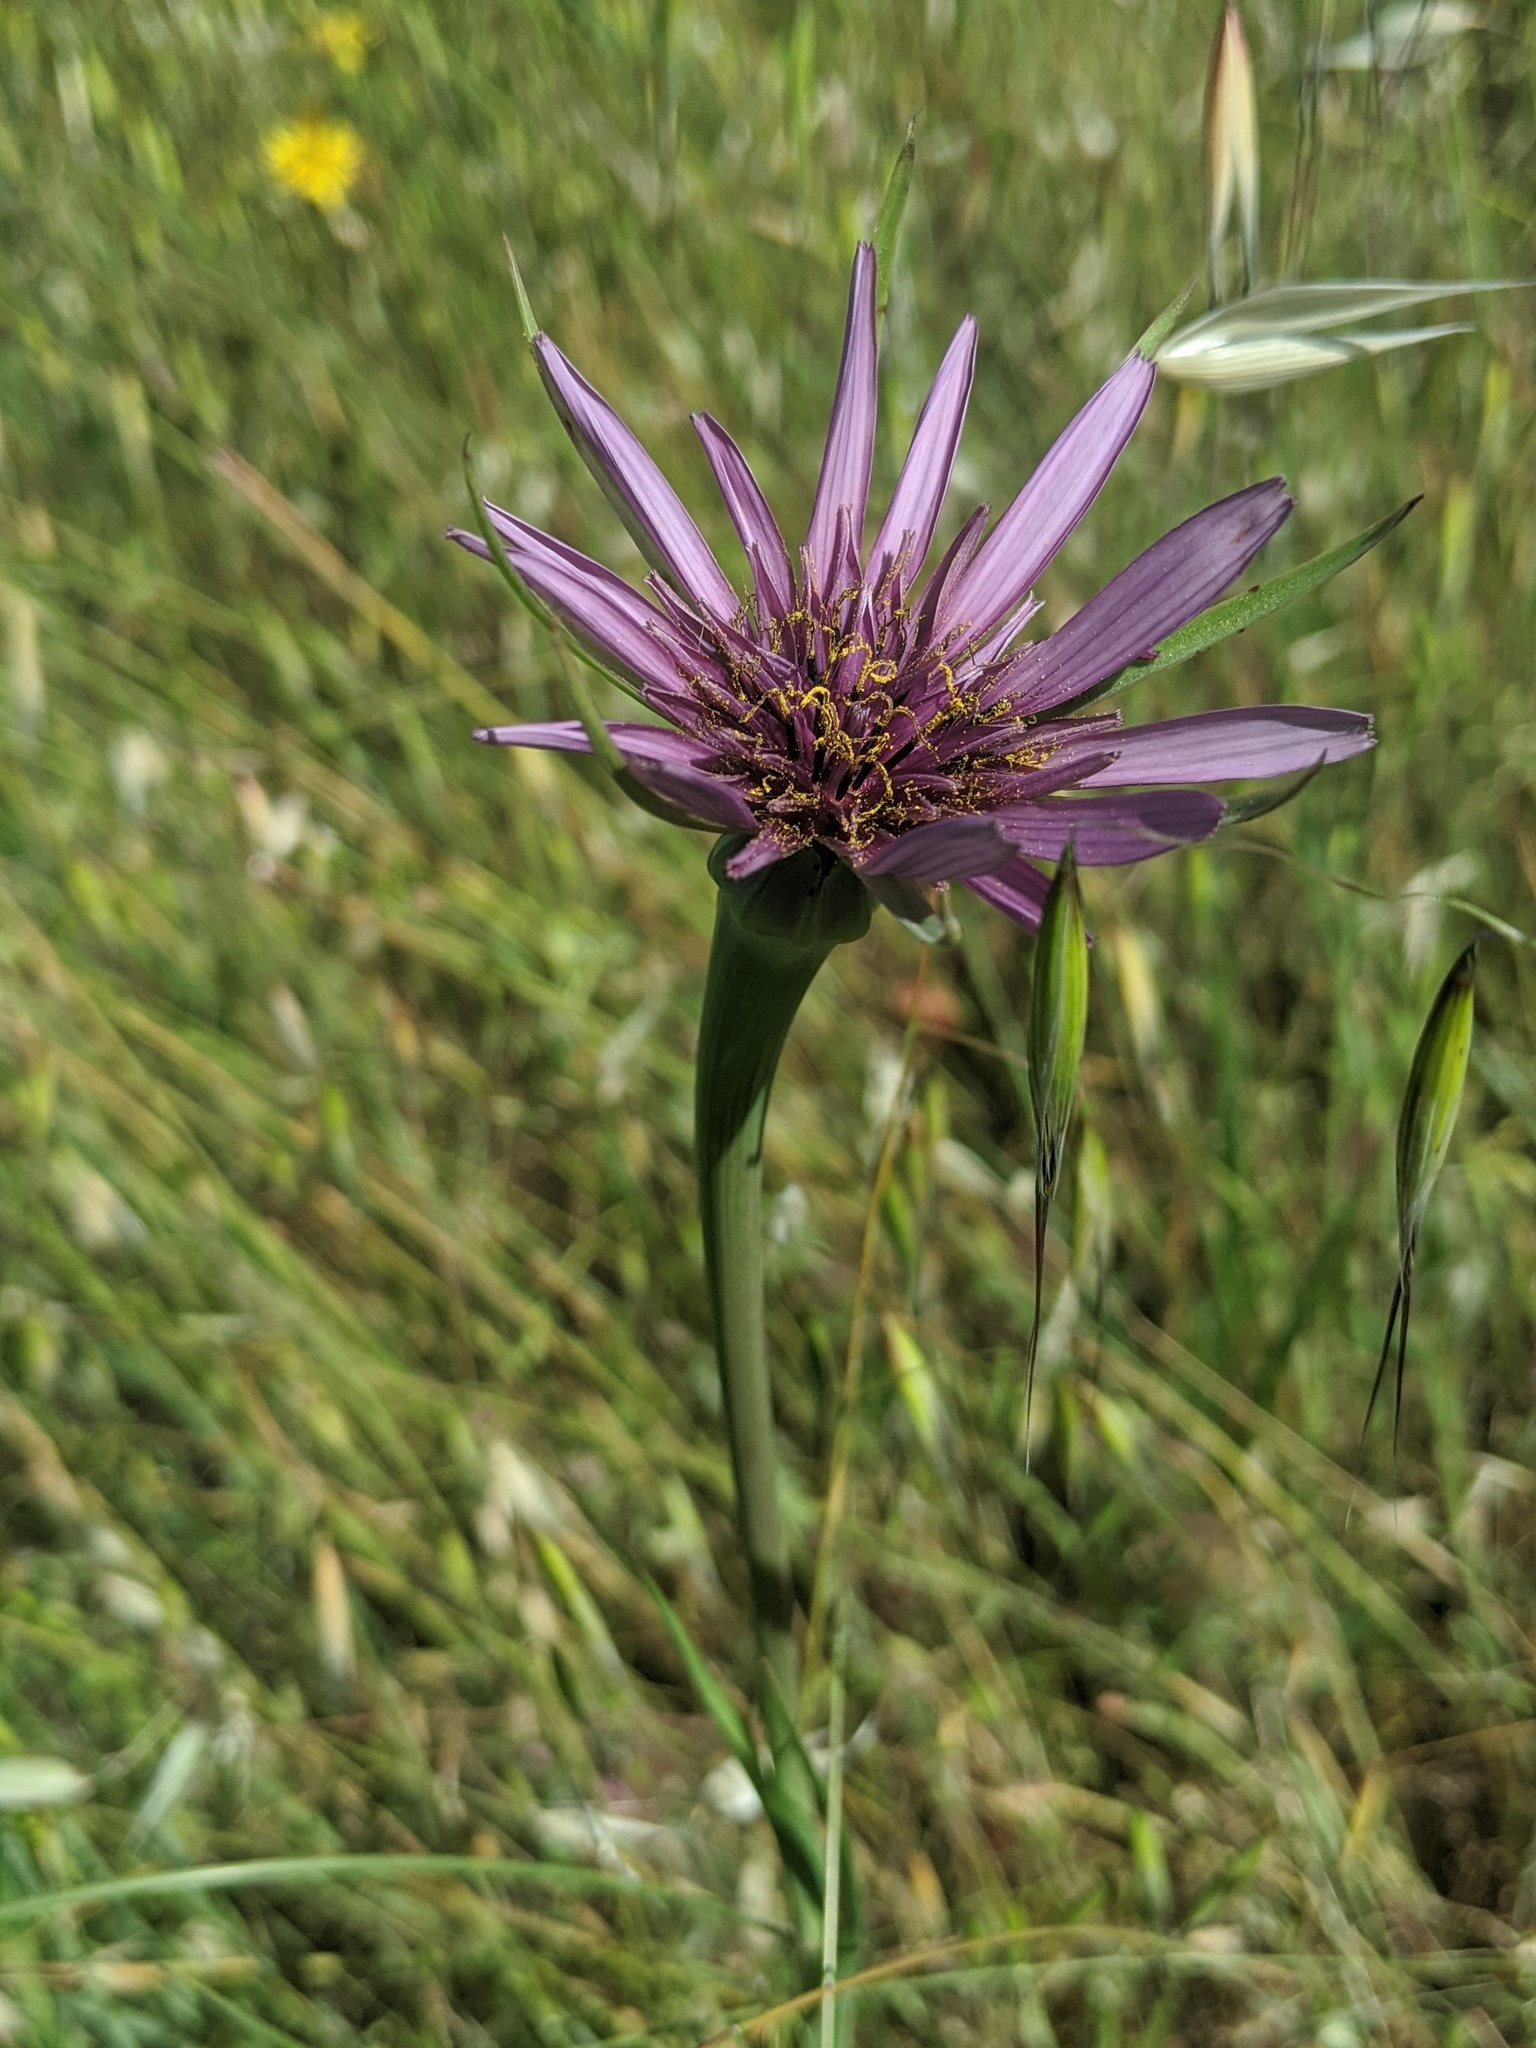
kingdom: Plantae
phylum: Tracheophyta
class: Magnoliopsida
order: Asterales
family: Asteraceae
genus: Tragopogon
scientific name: Tragopogon porrifolius
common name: Salsify
